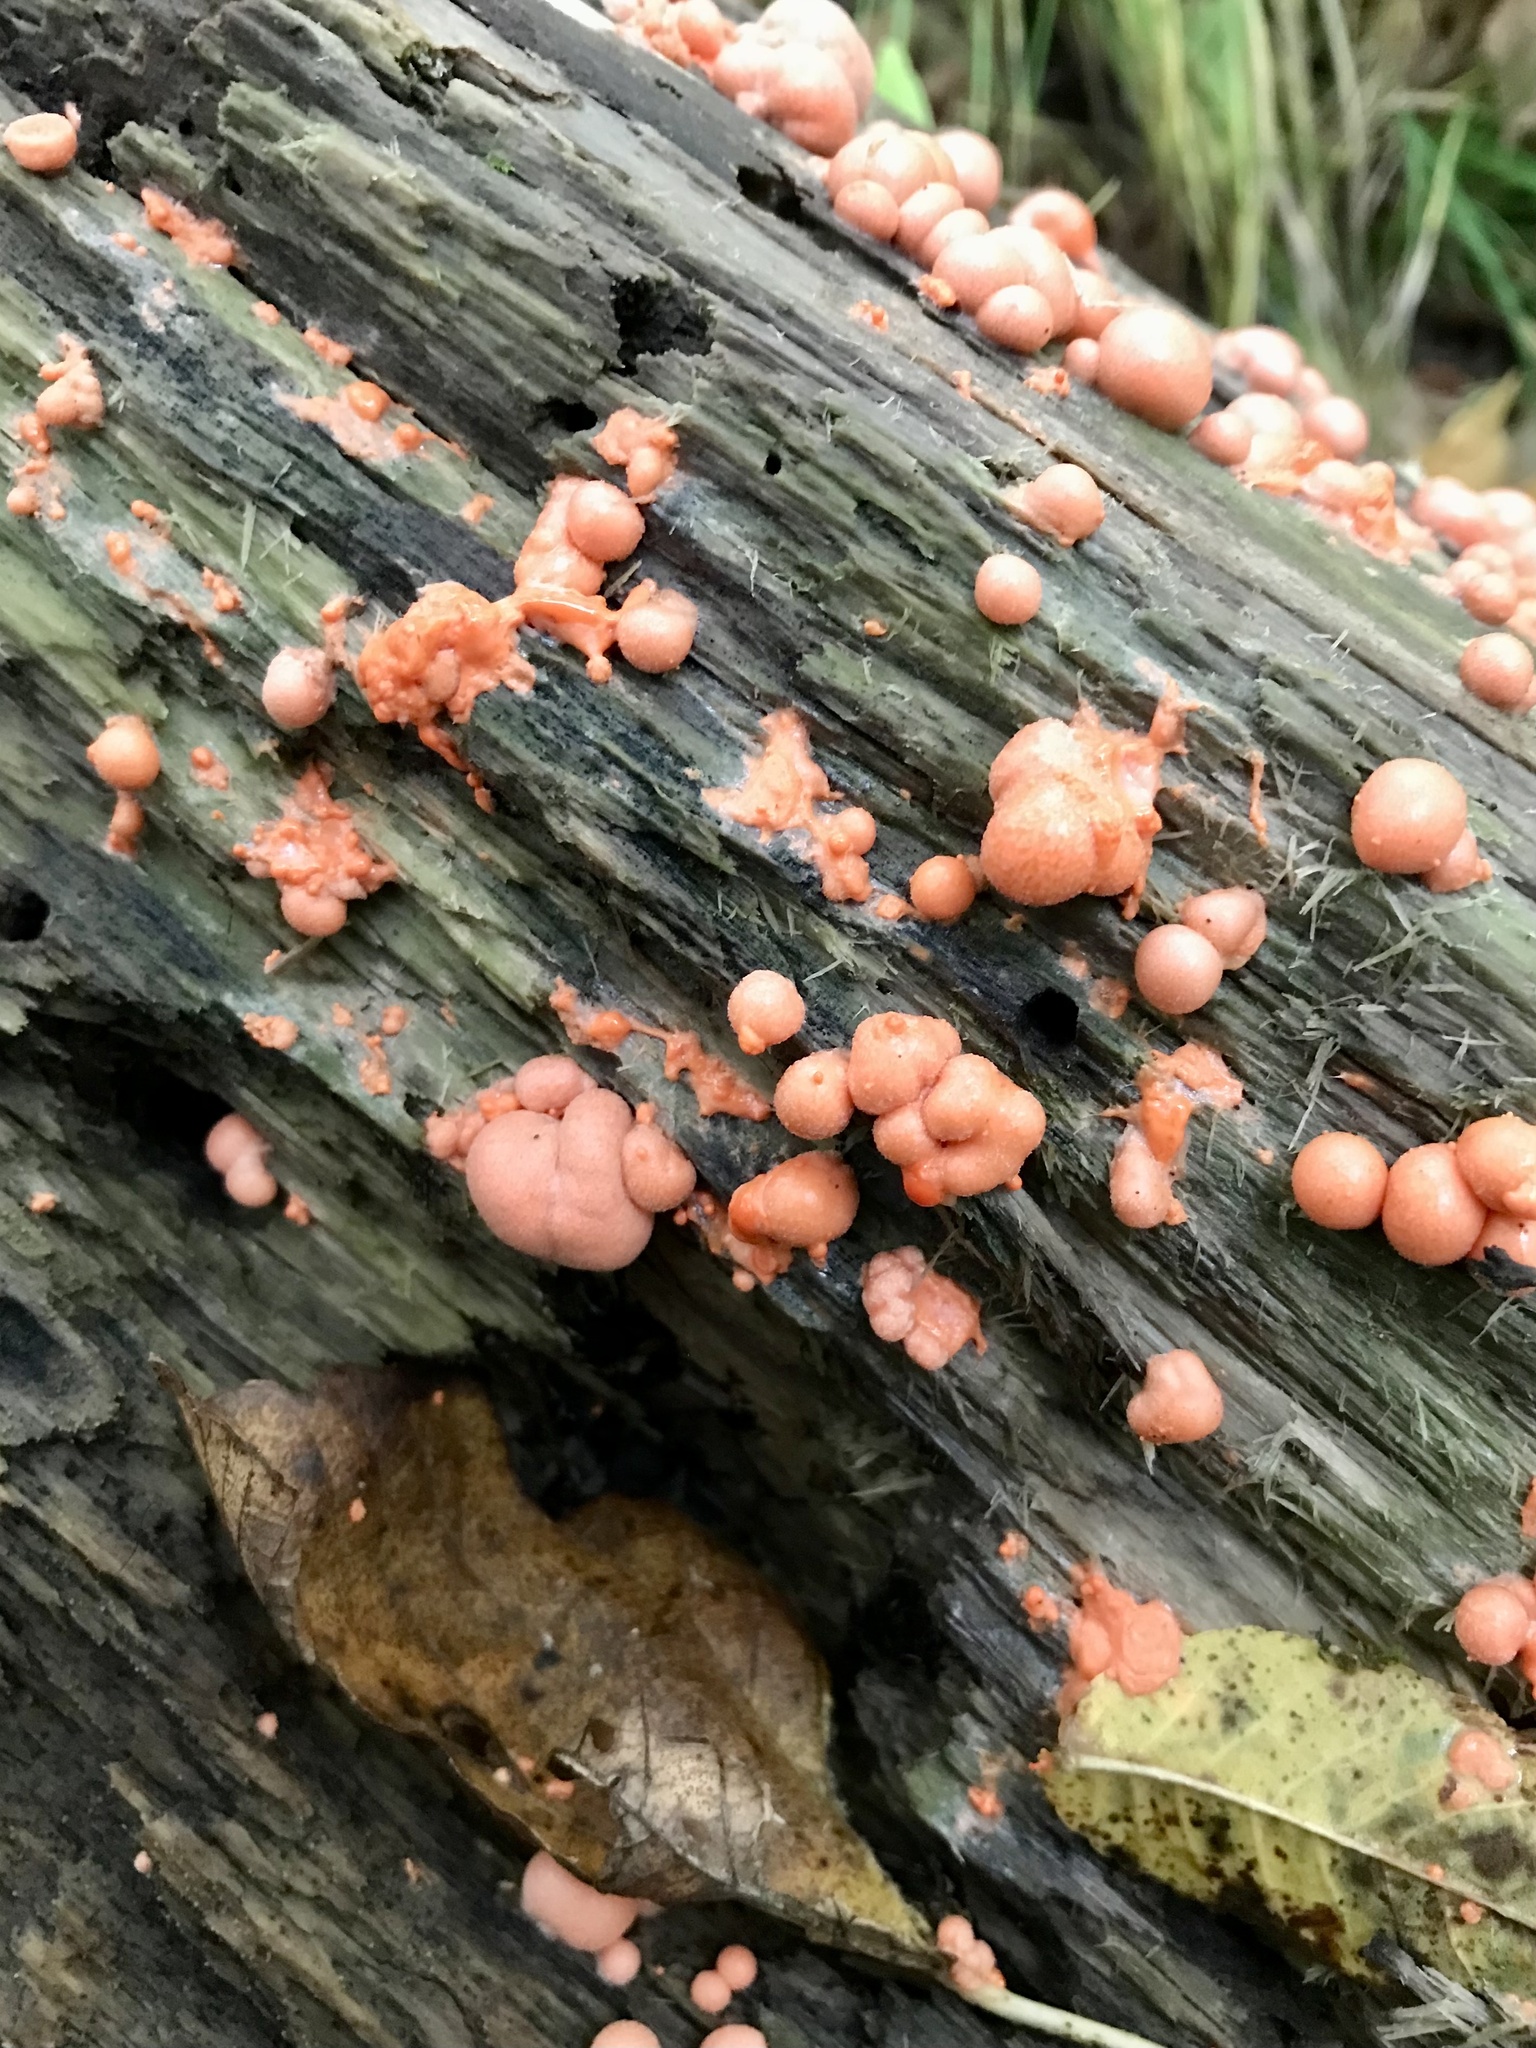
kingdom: Protozoa
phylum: Mycetozoa
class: Myxomycetes
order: Cribrariales
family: Tubiferaceae
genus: Lycogala
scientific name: Lycogala epidendrum
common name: Wolf's milk
